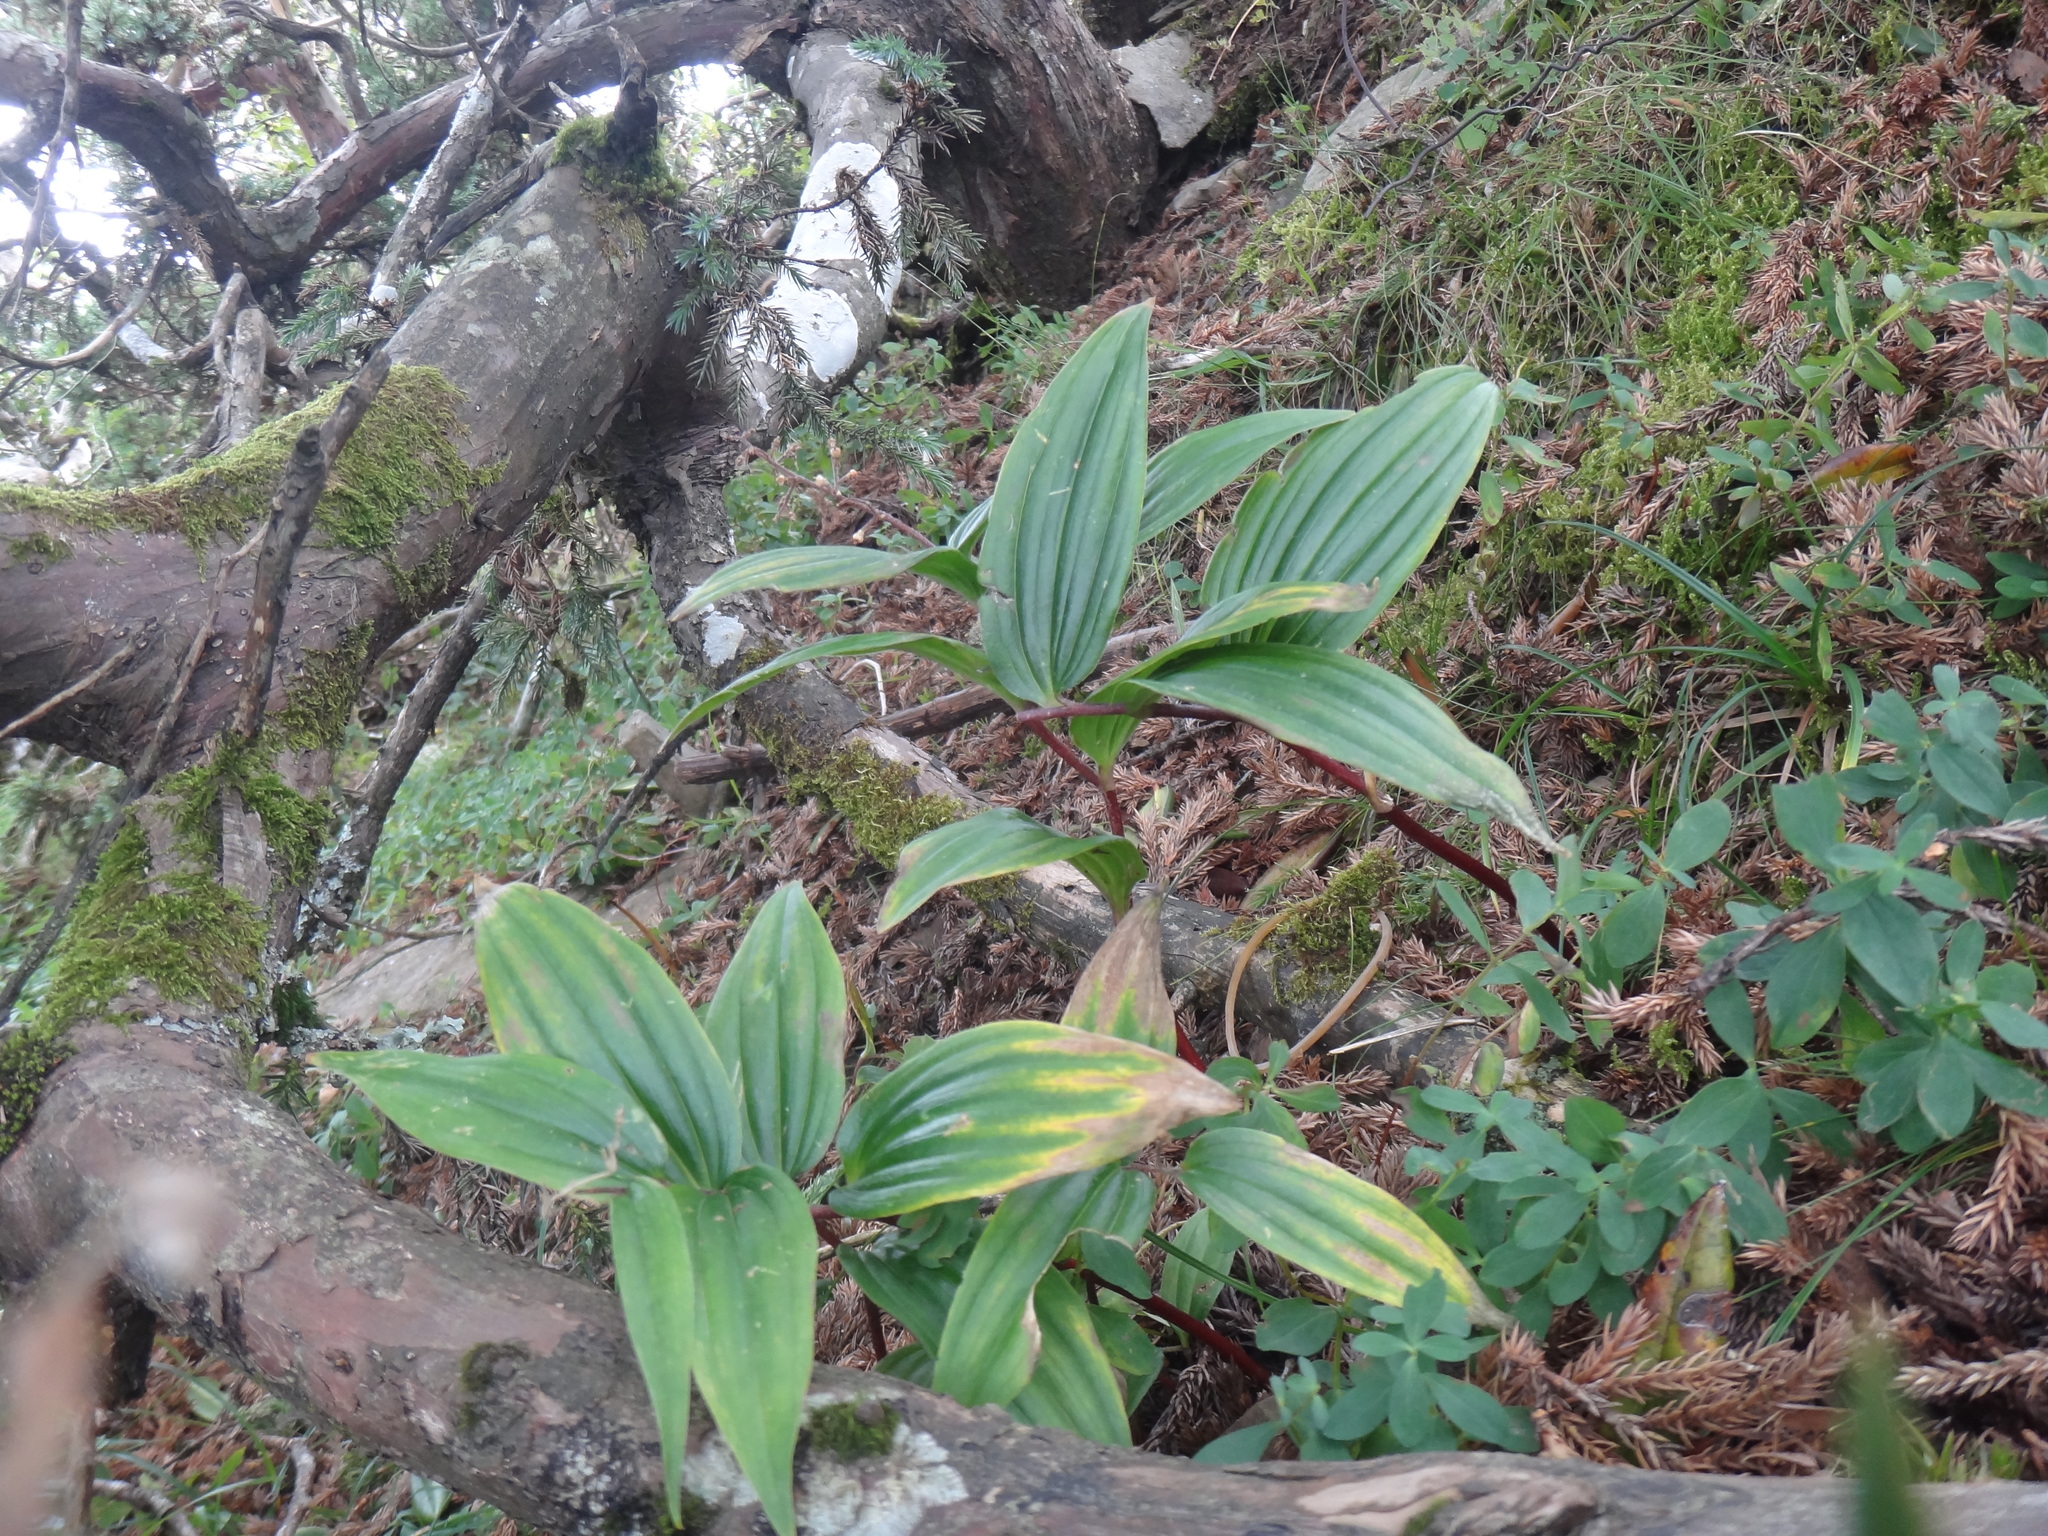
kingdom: Plantae
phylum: Tracheophyta
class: Liliopsida
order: Asparagales
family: Asparagaceae
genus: Maianthemum
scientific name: Maianthemum formosanum
